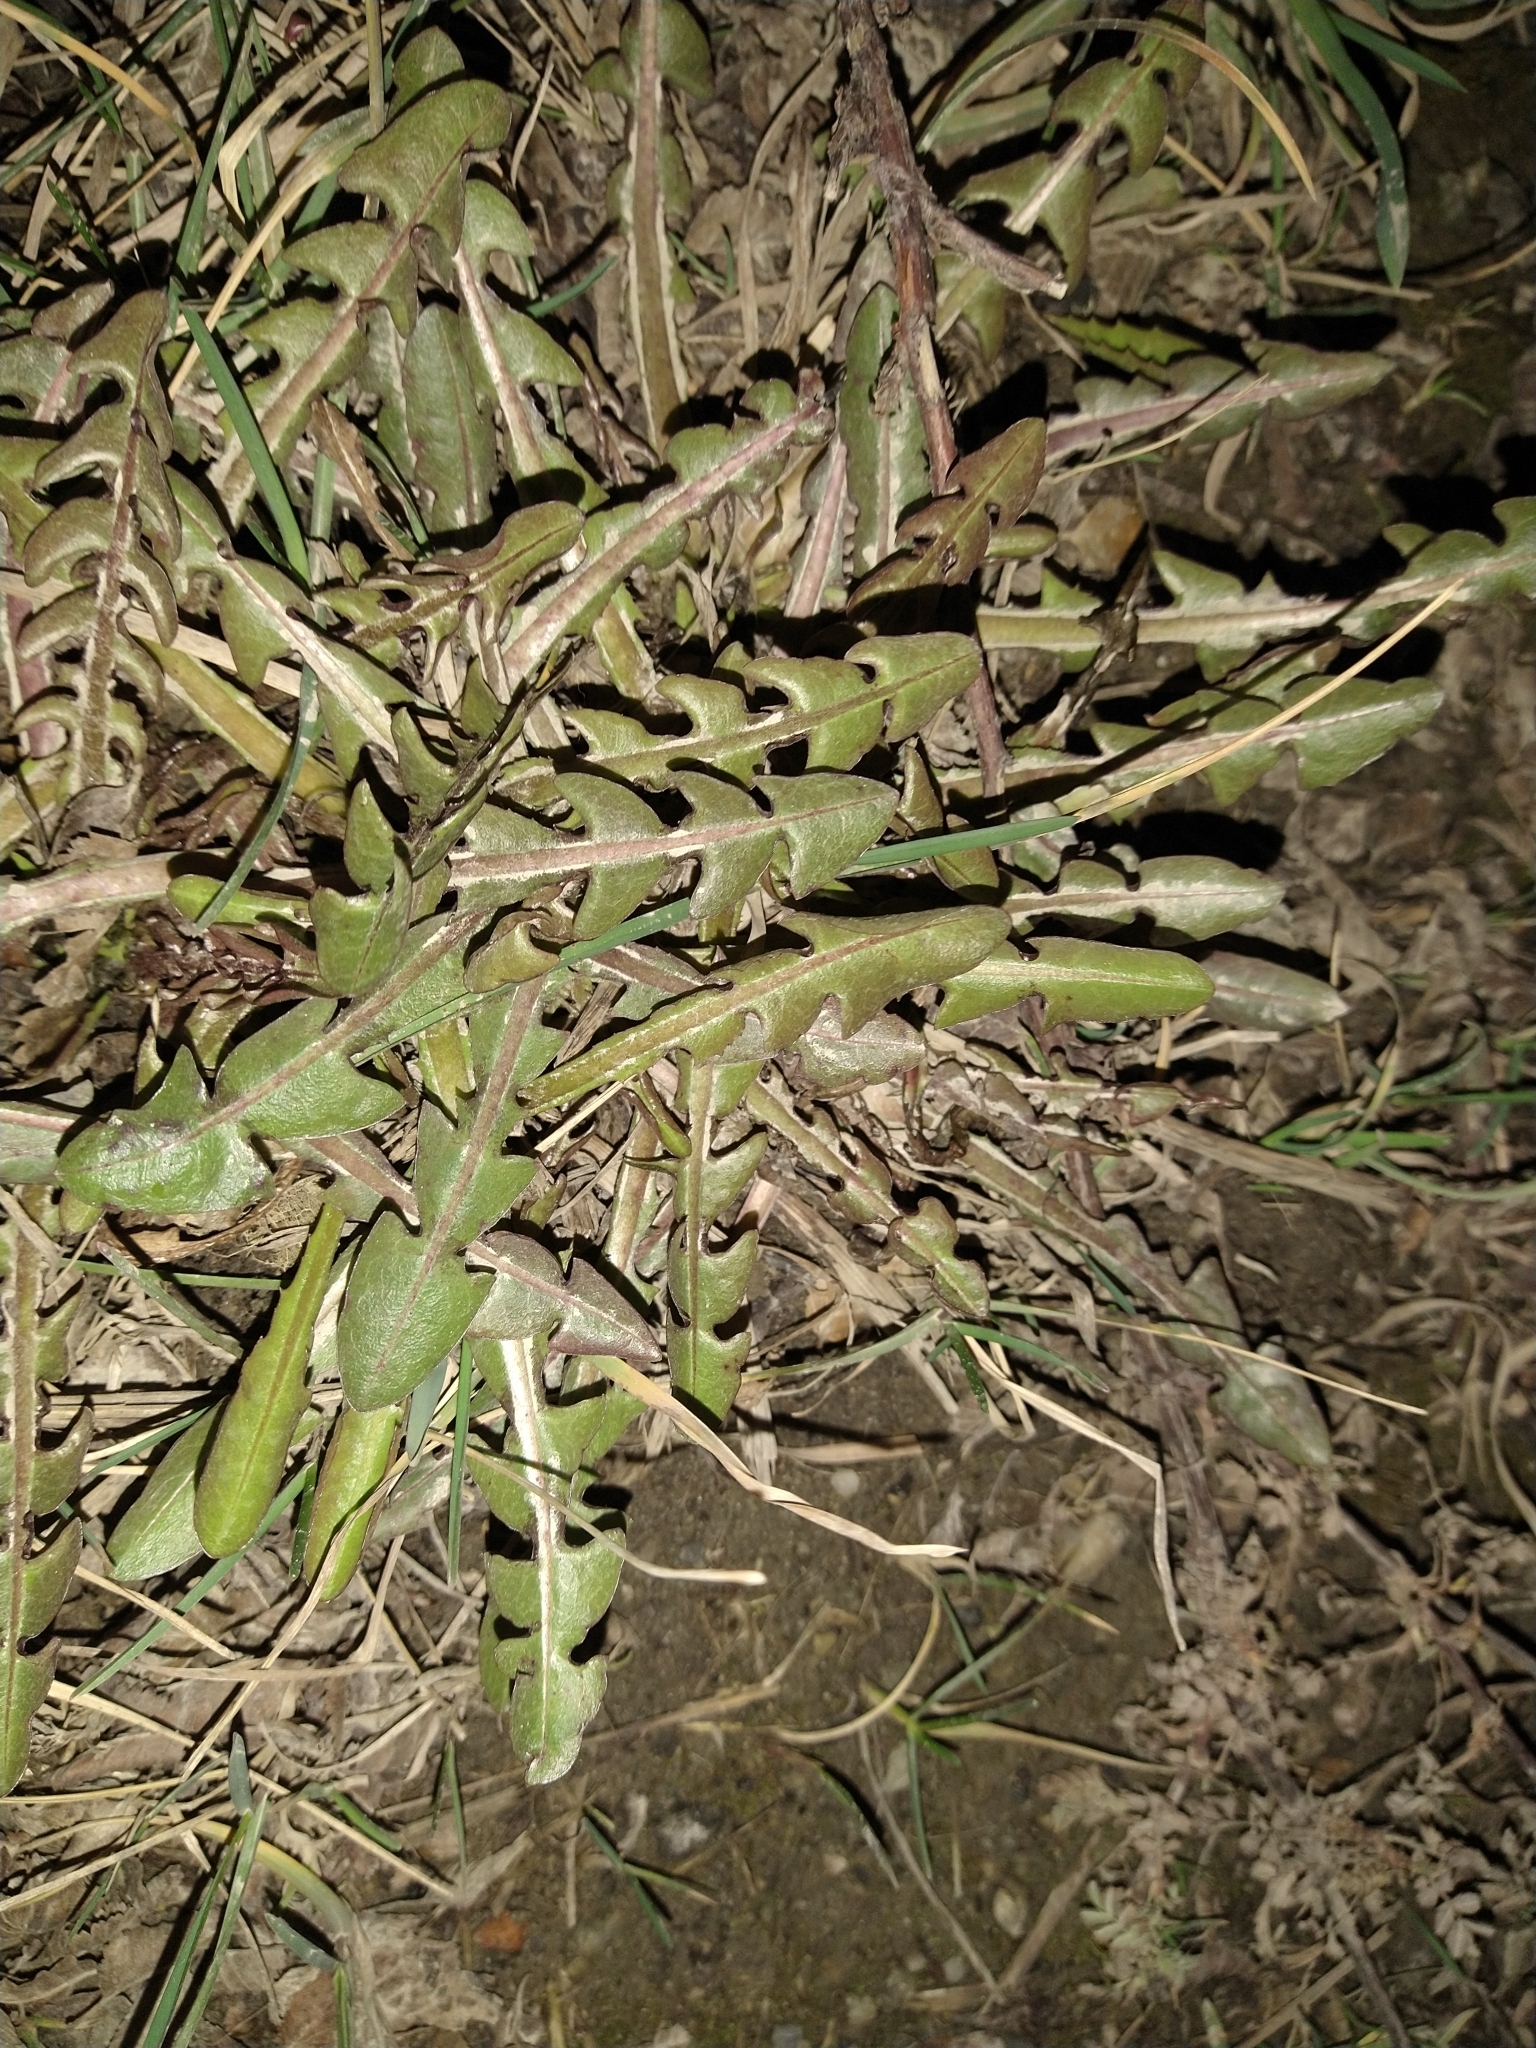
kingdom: Plantae
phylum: Tracheophyta
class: Magnoliopsida
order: Asterales
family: Asteraceae
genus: Taraxacum
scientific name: Taraxacum officinale
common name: Common dandelion
